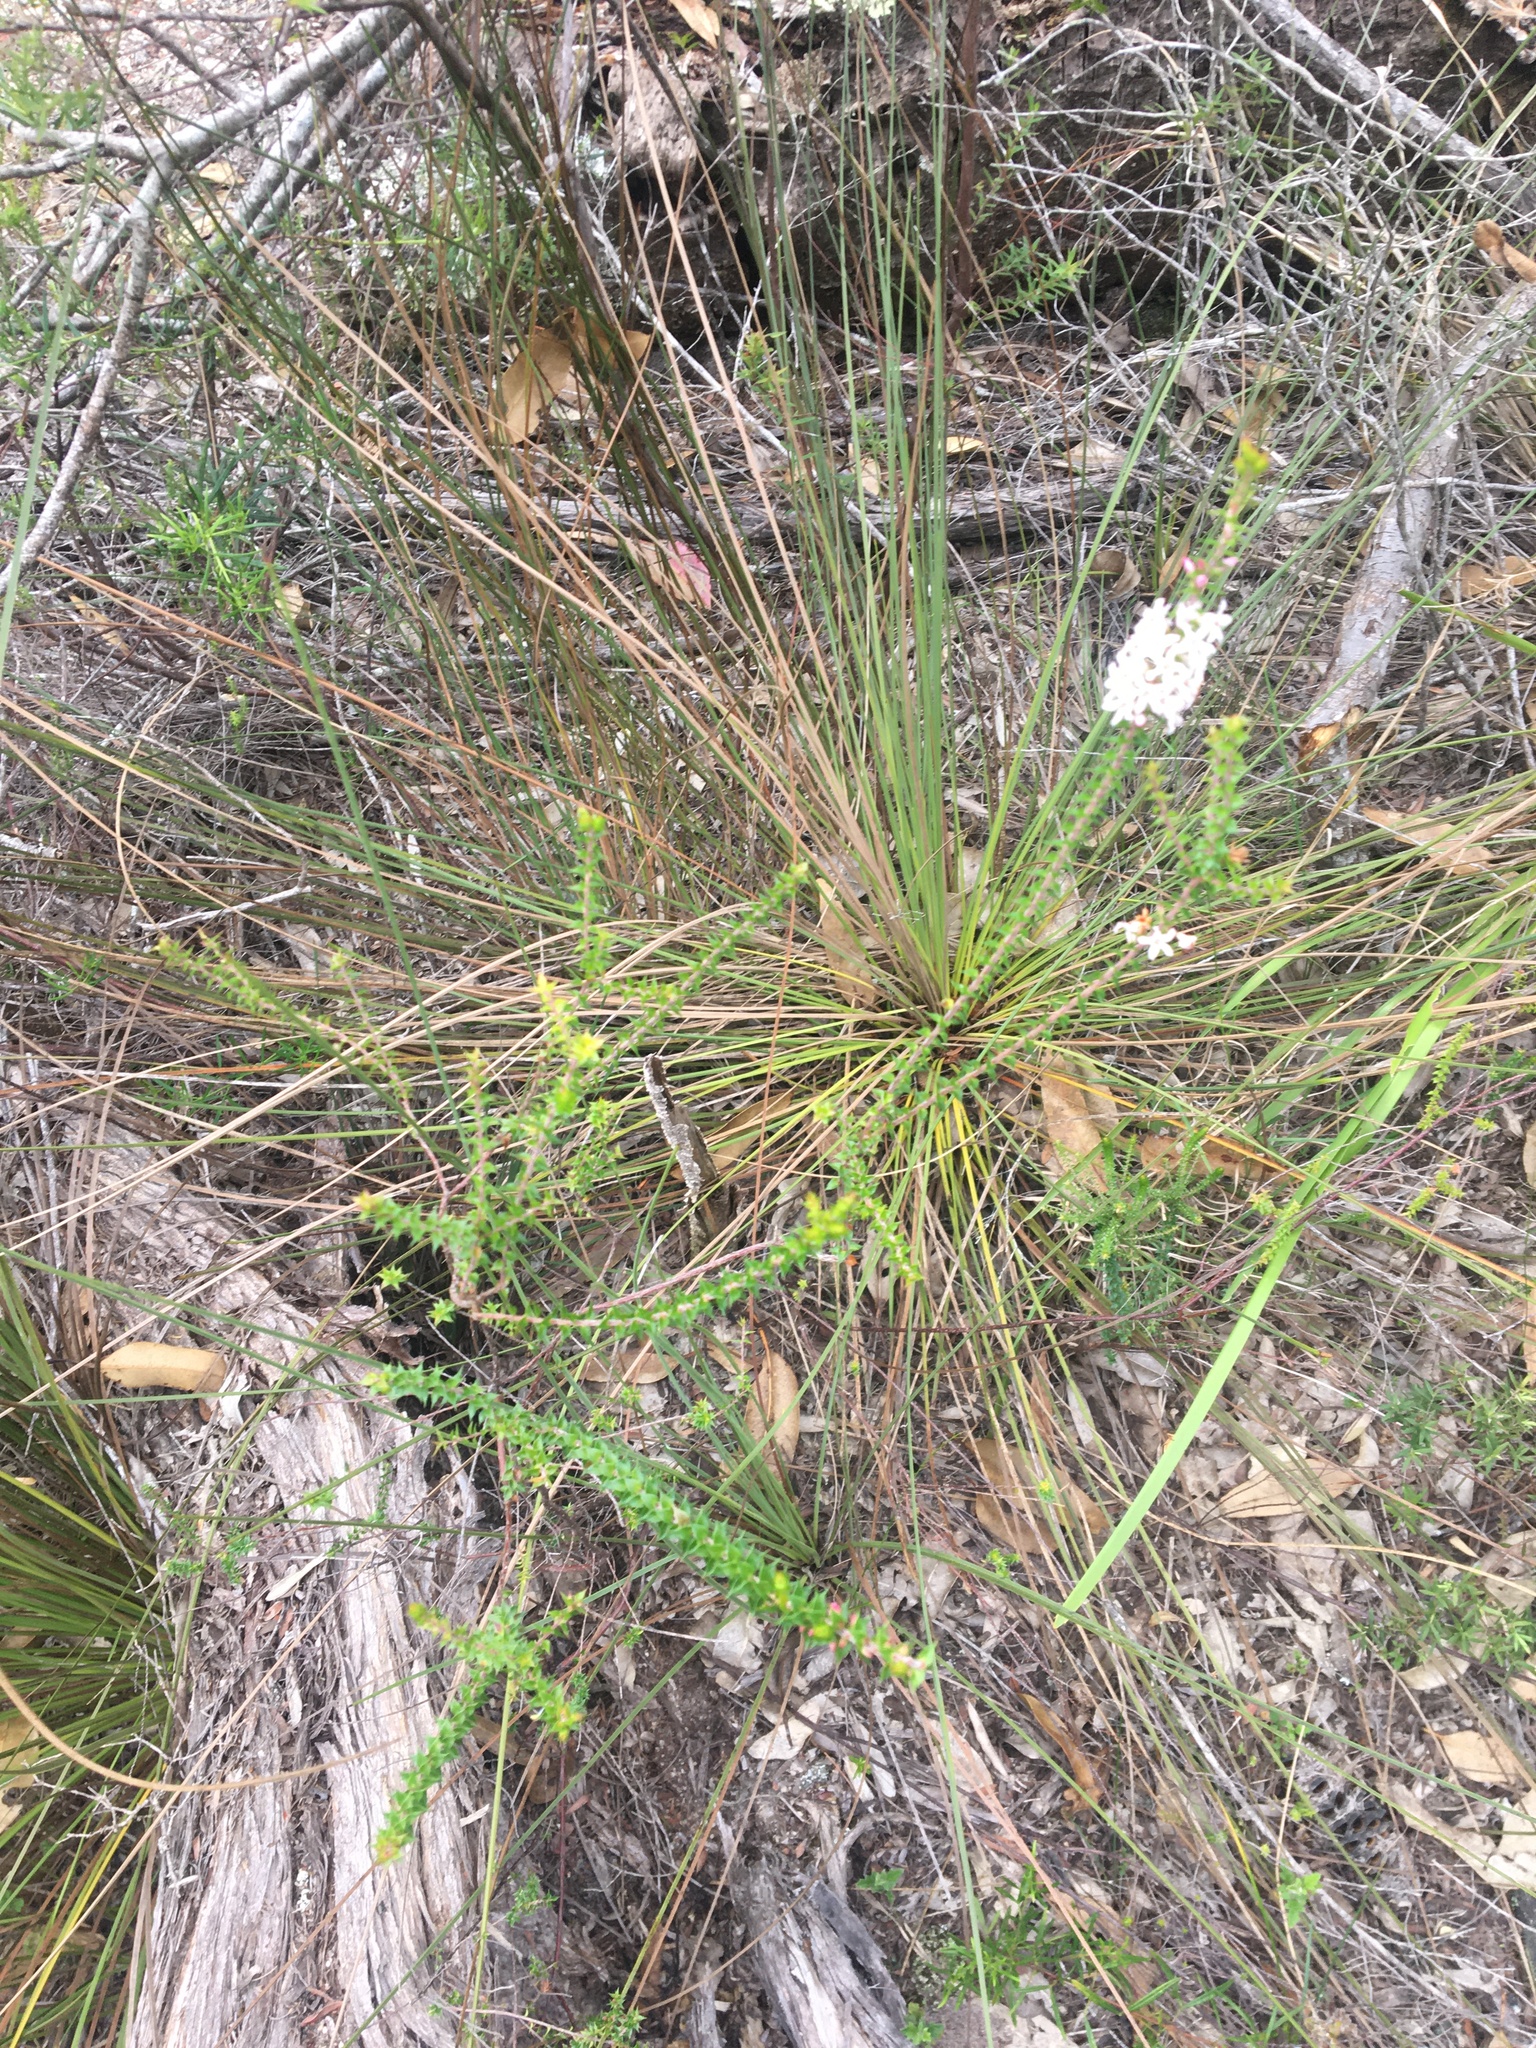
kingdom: Plantae
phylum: Tracheophyta
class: Magnoliopsida
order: Ericales
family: Ericaceae
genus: Epacris
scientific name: Epacris pulchella
